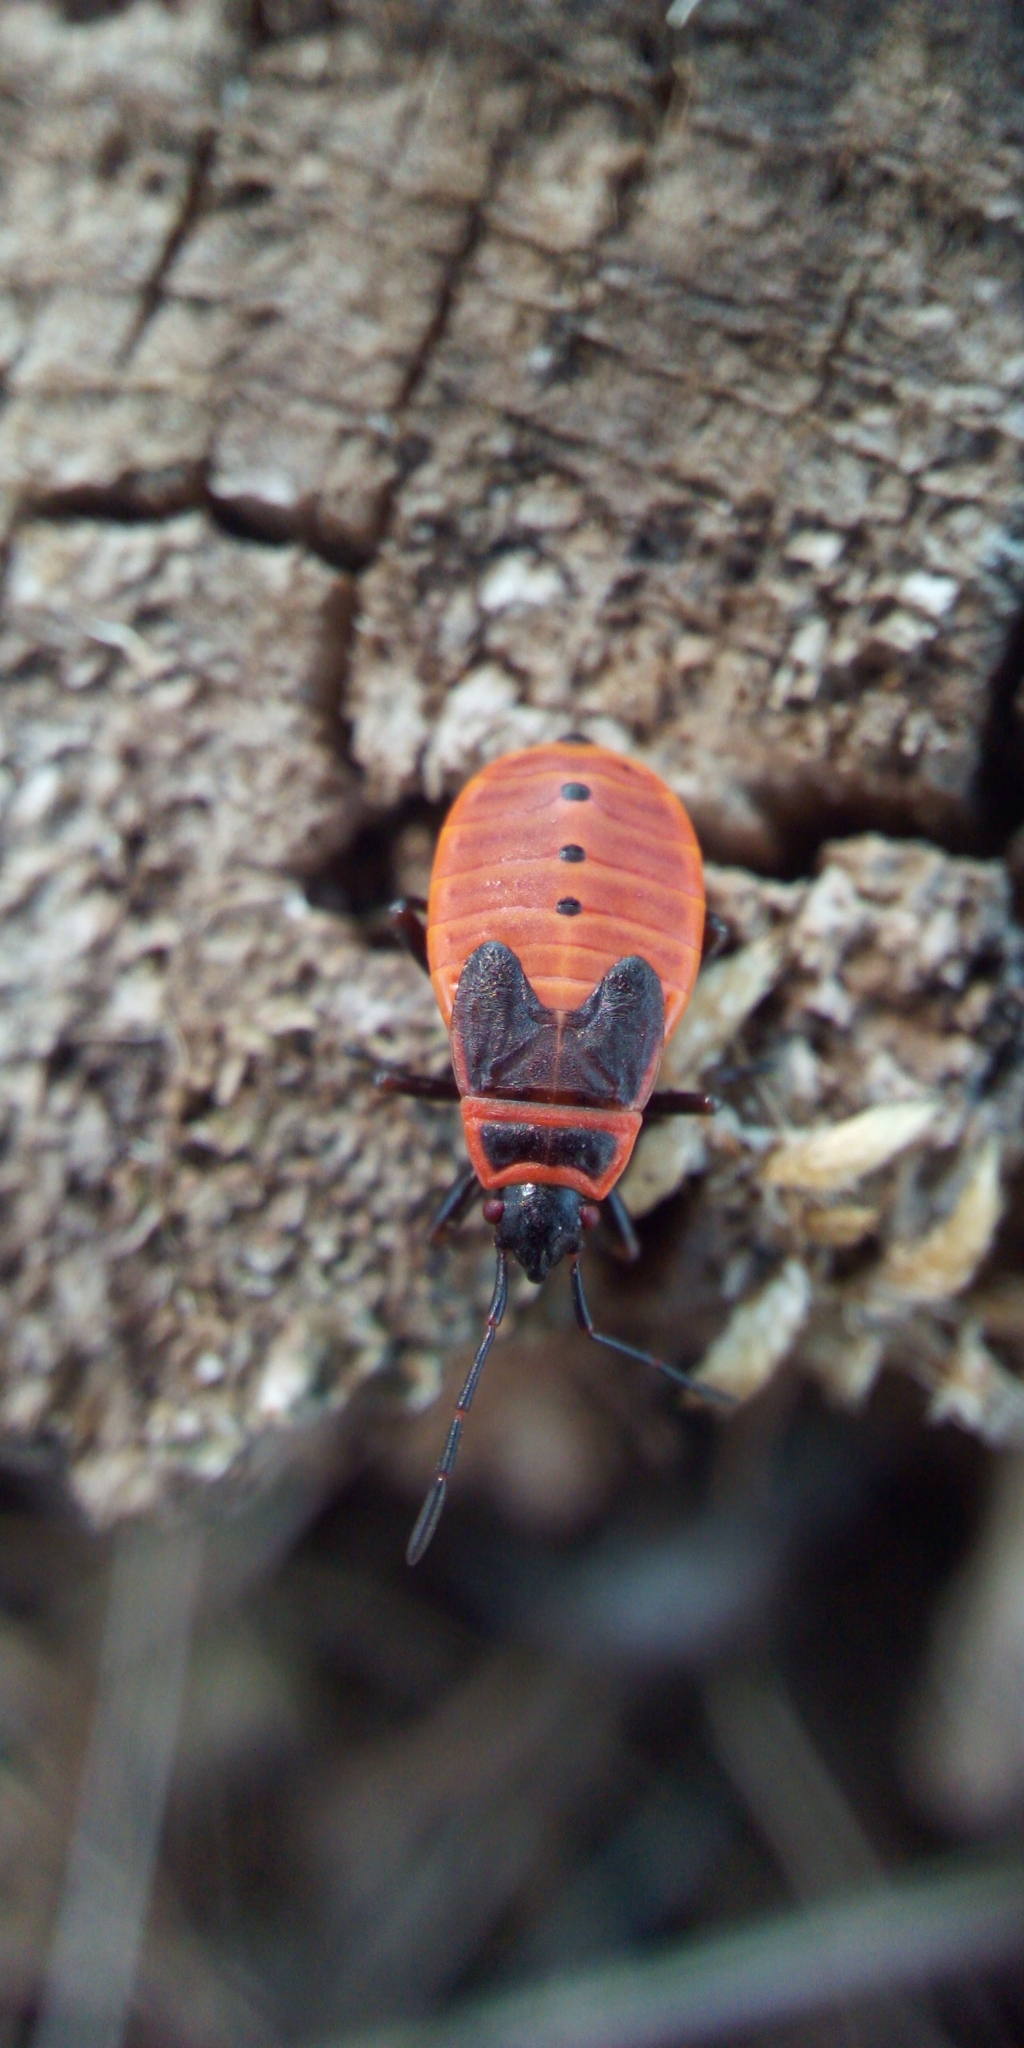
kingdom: Animalia
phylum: Arthropoda
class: Insecta
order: Hemiptera
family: Pyrrhocoridae
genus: Pyrrhocoris
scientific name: Pyrrhocoris apterus
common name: Firebug
